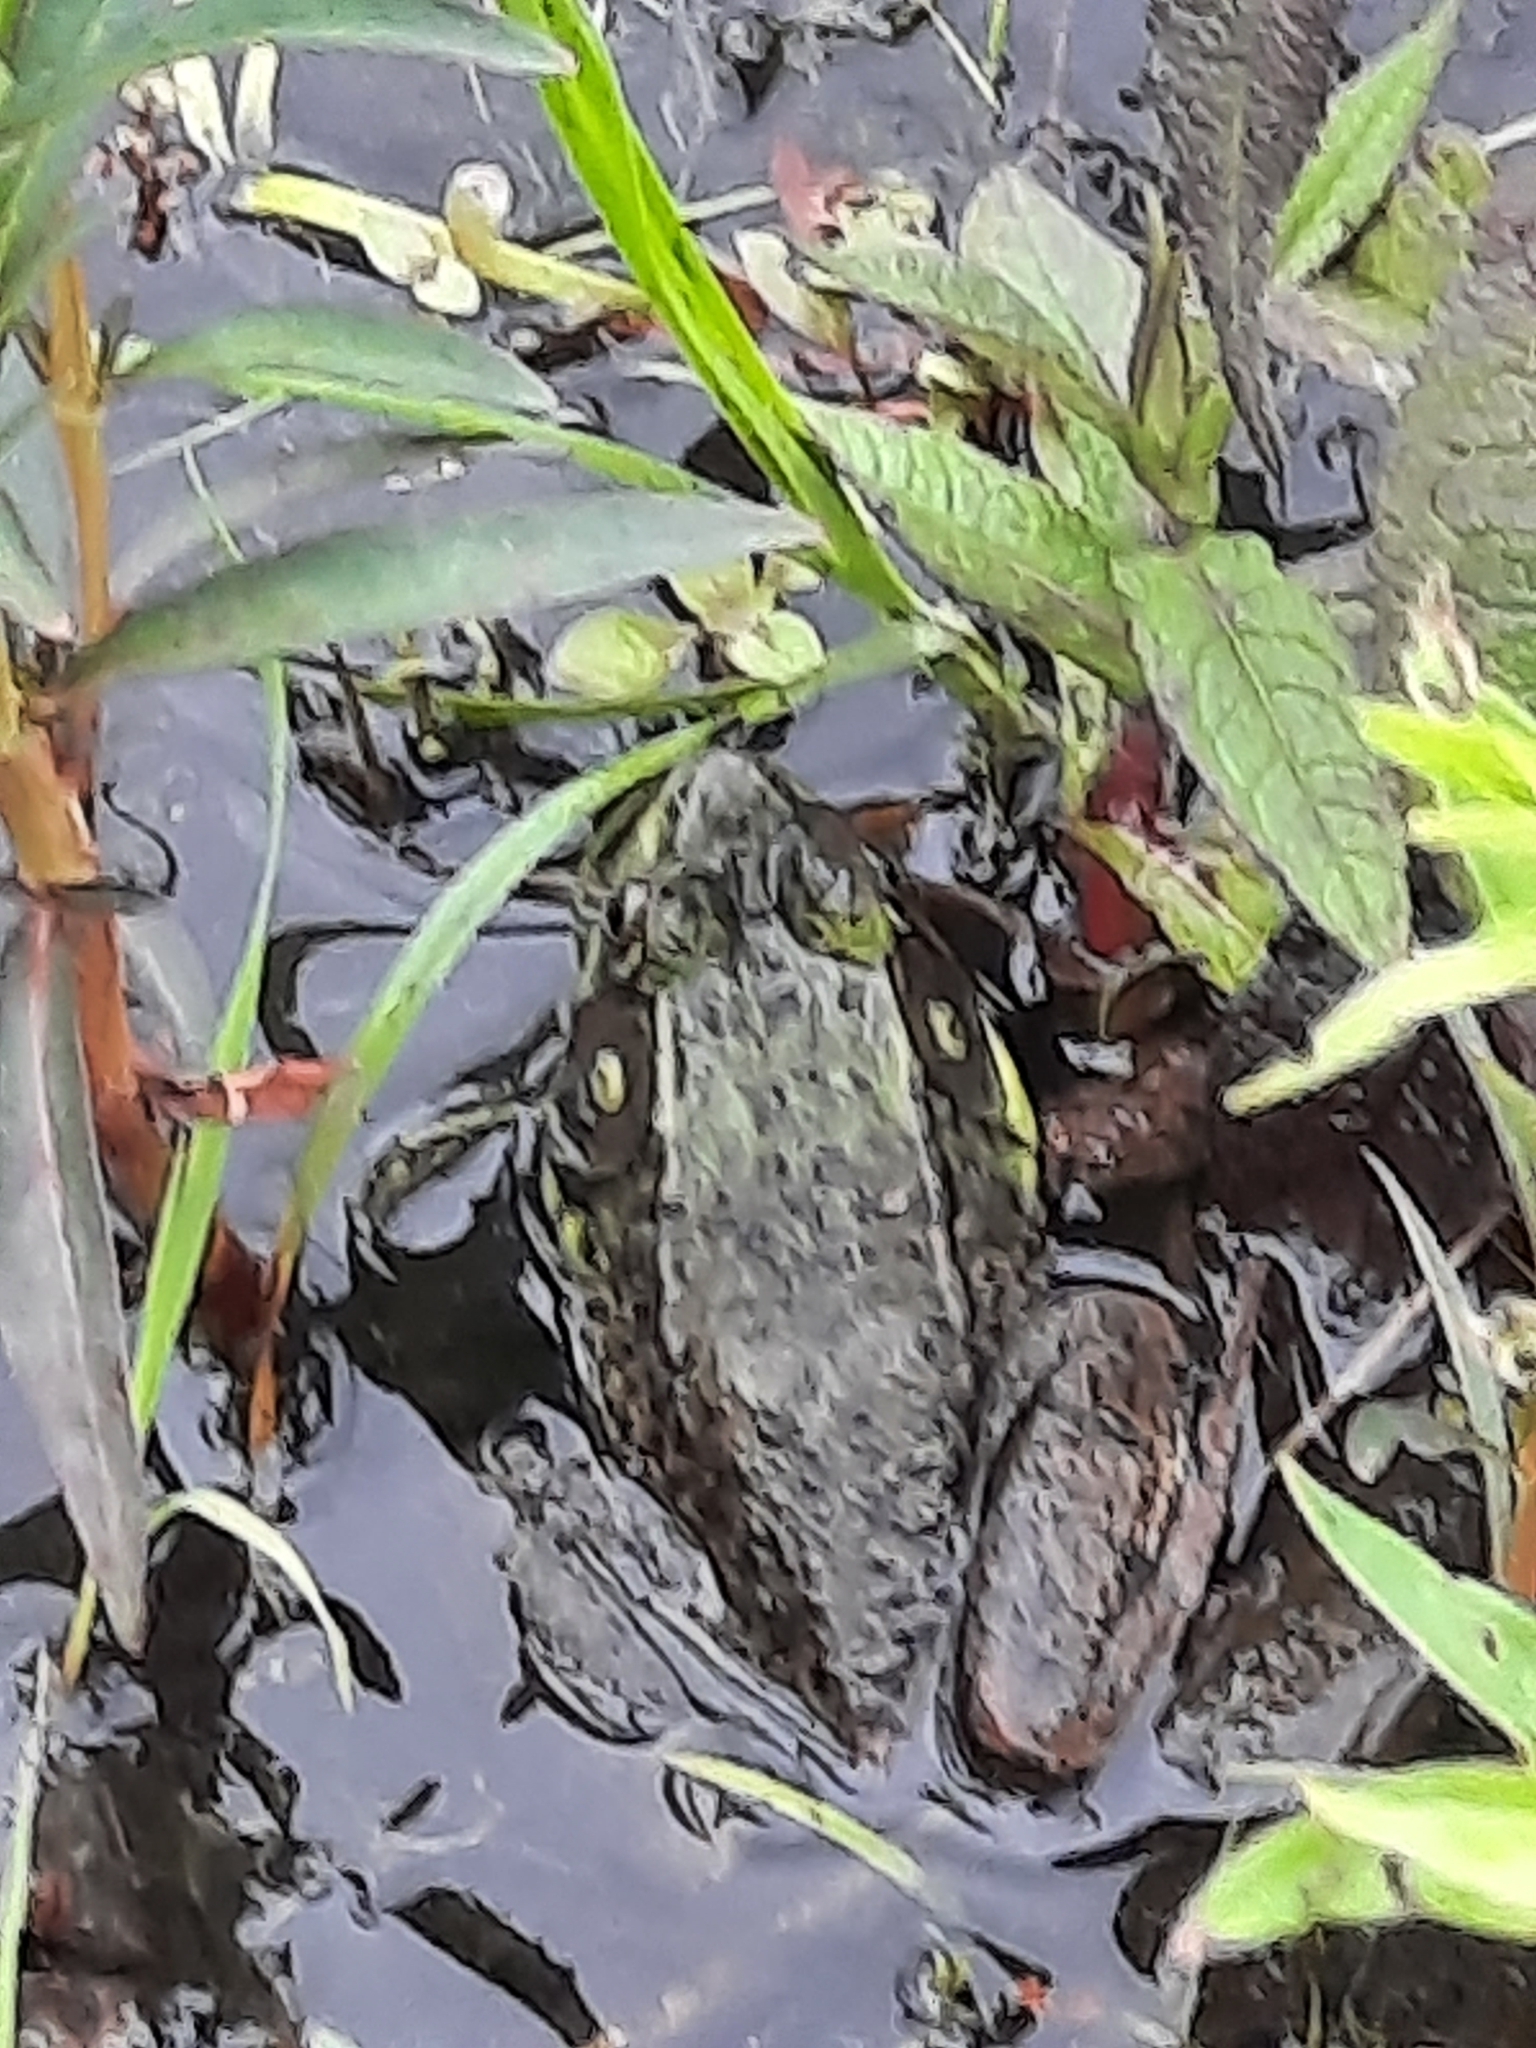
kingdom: Animalia
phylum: Chordata
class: Amphibia
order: Anura
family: Ranidae
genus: Lithobates
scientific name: Lithobates clamitans
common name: Green frog
